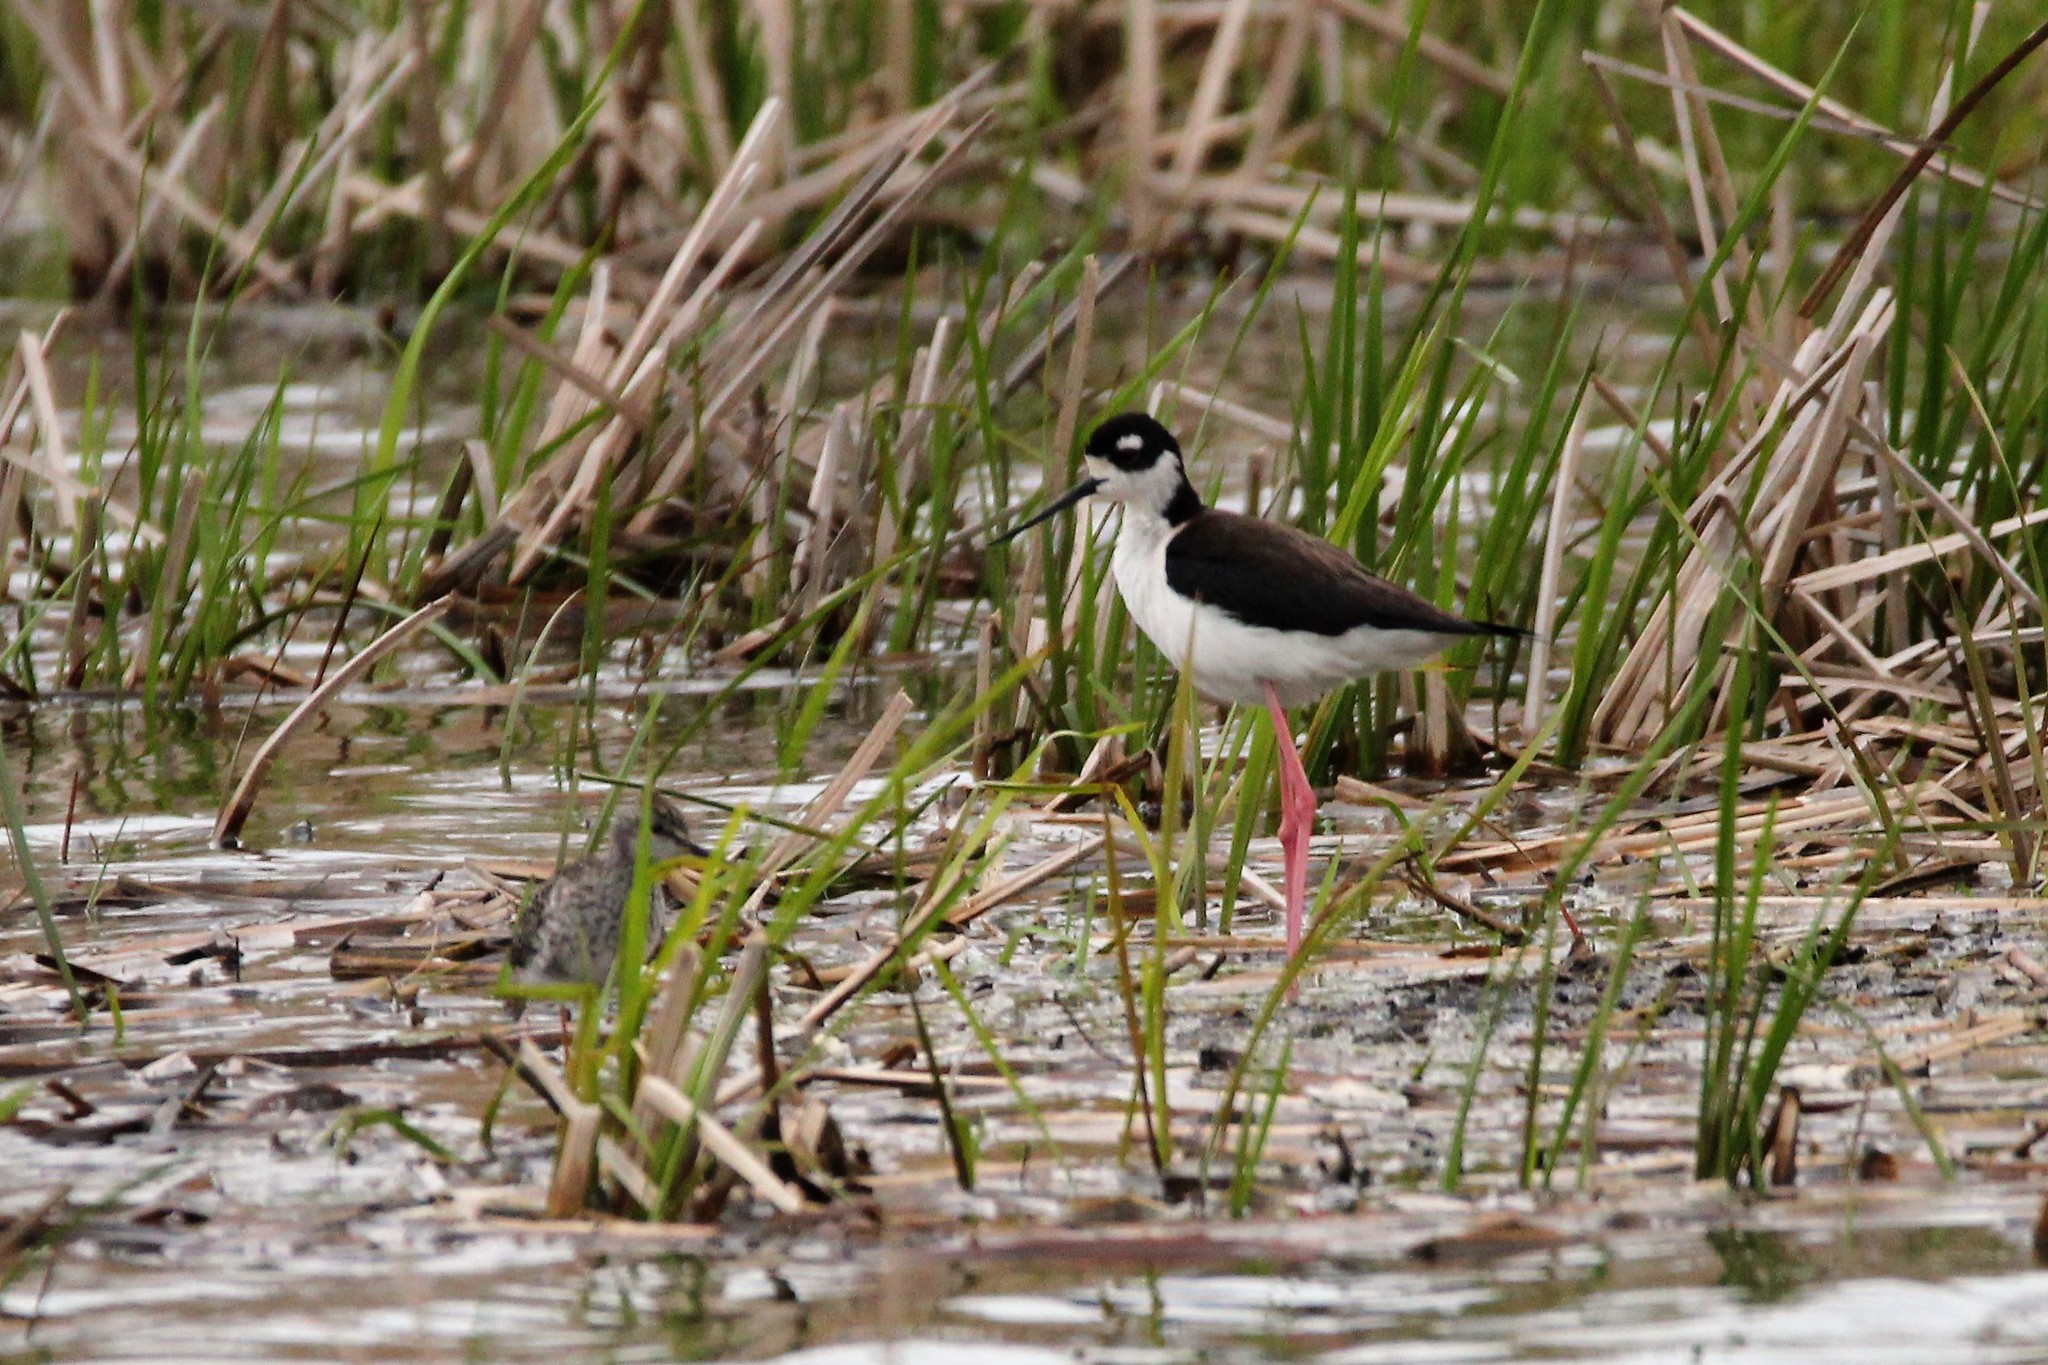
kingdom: Animalia
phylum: Chordata
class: Aves
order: Charadriiformes
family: Recurvirostridae
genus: Himantopus
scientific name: Himantopus mexicanus
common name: Black-necked stilt
